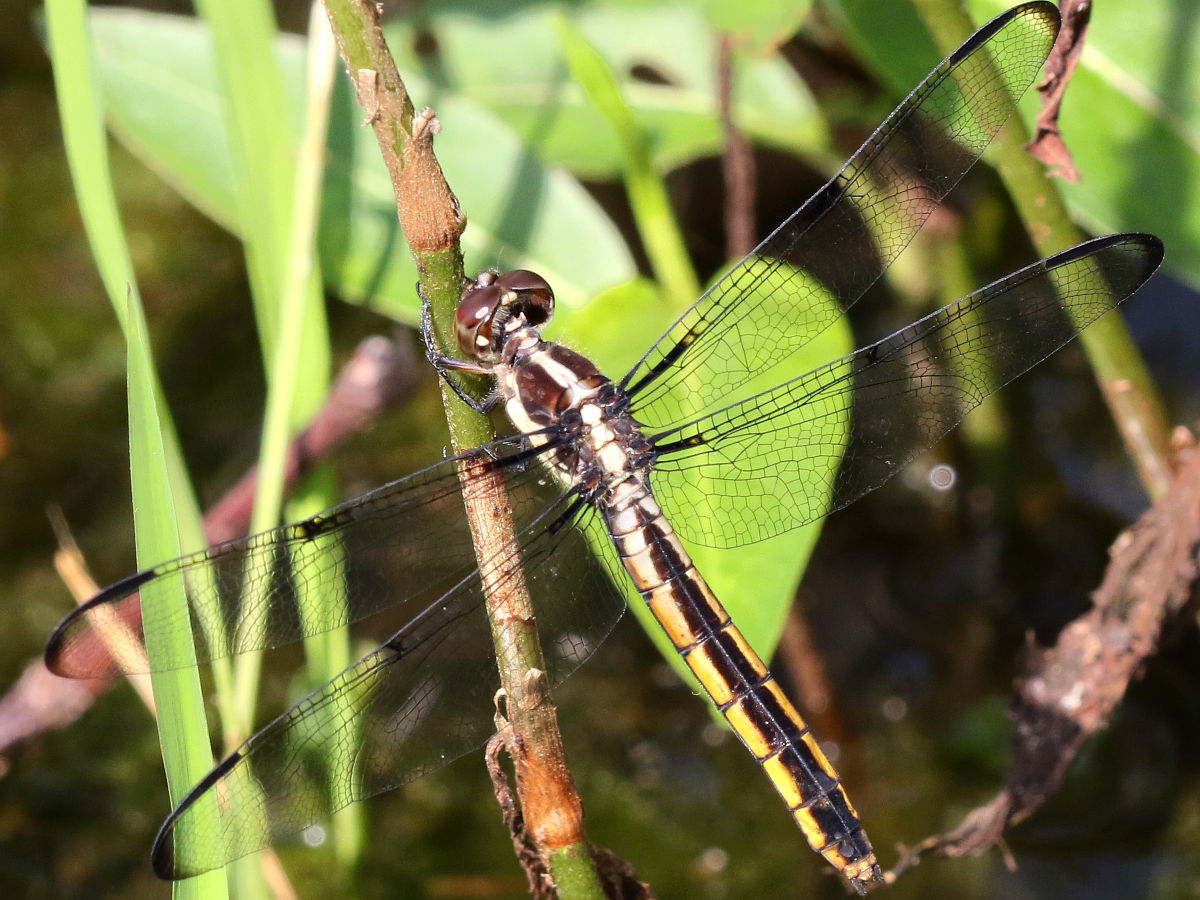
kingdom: Animalia
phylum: Arthropoda
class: Insecta
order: Odonata
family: Libellulidae
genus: Libellula
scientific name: Libellula incesta
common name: Slaty skimmer
